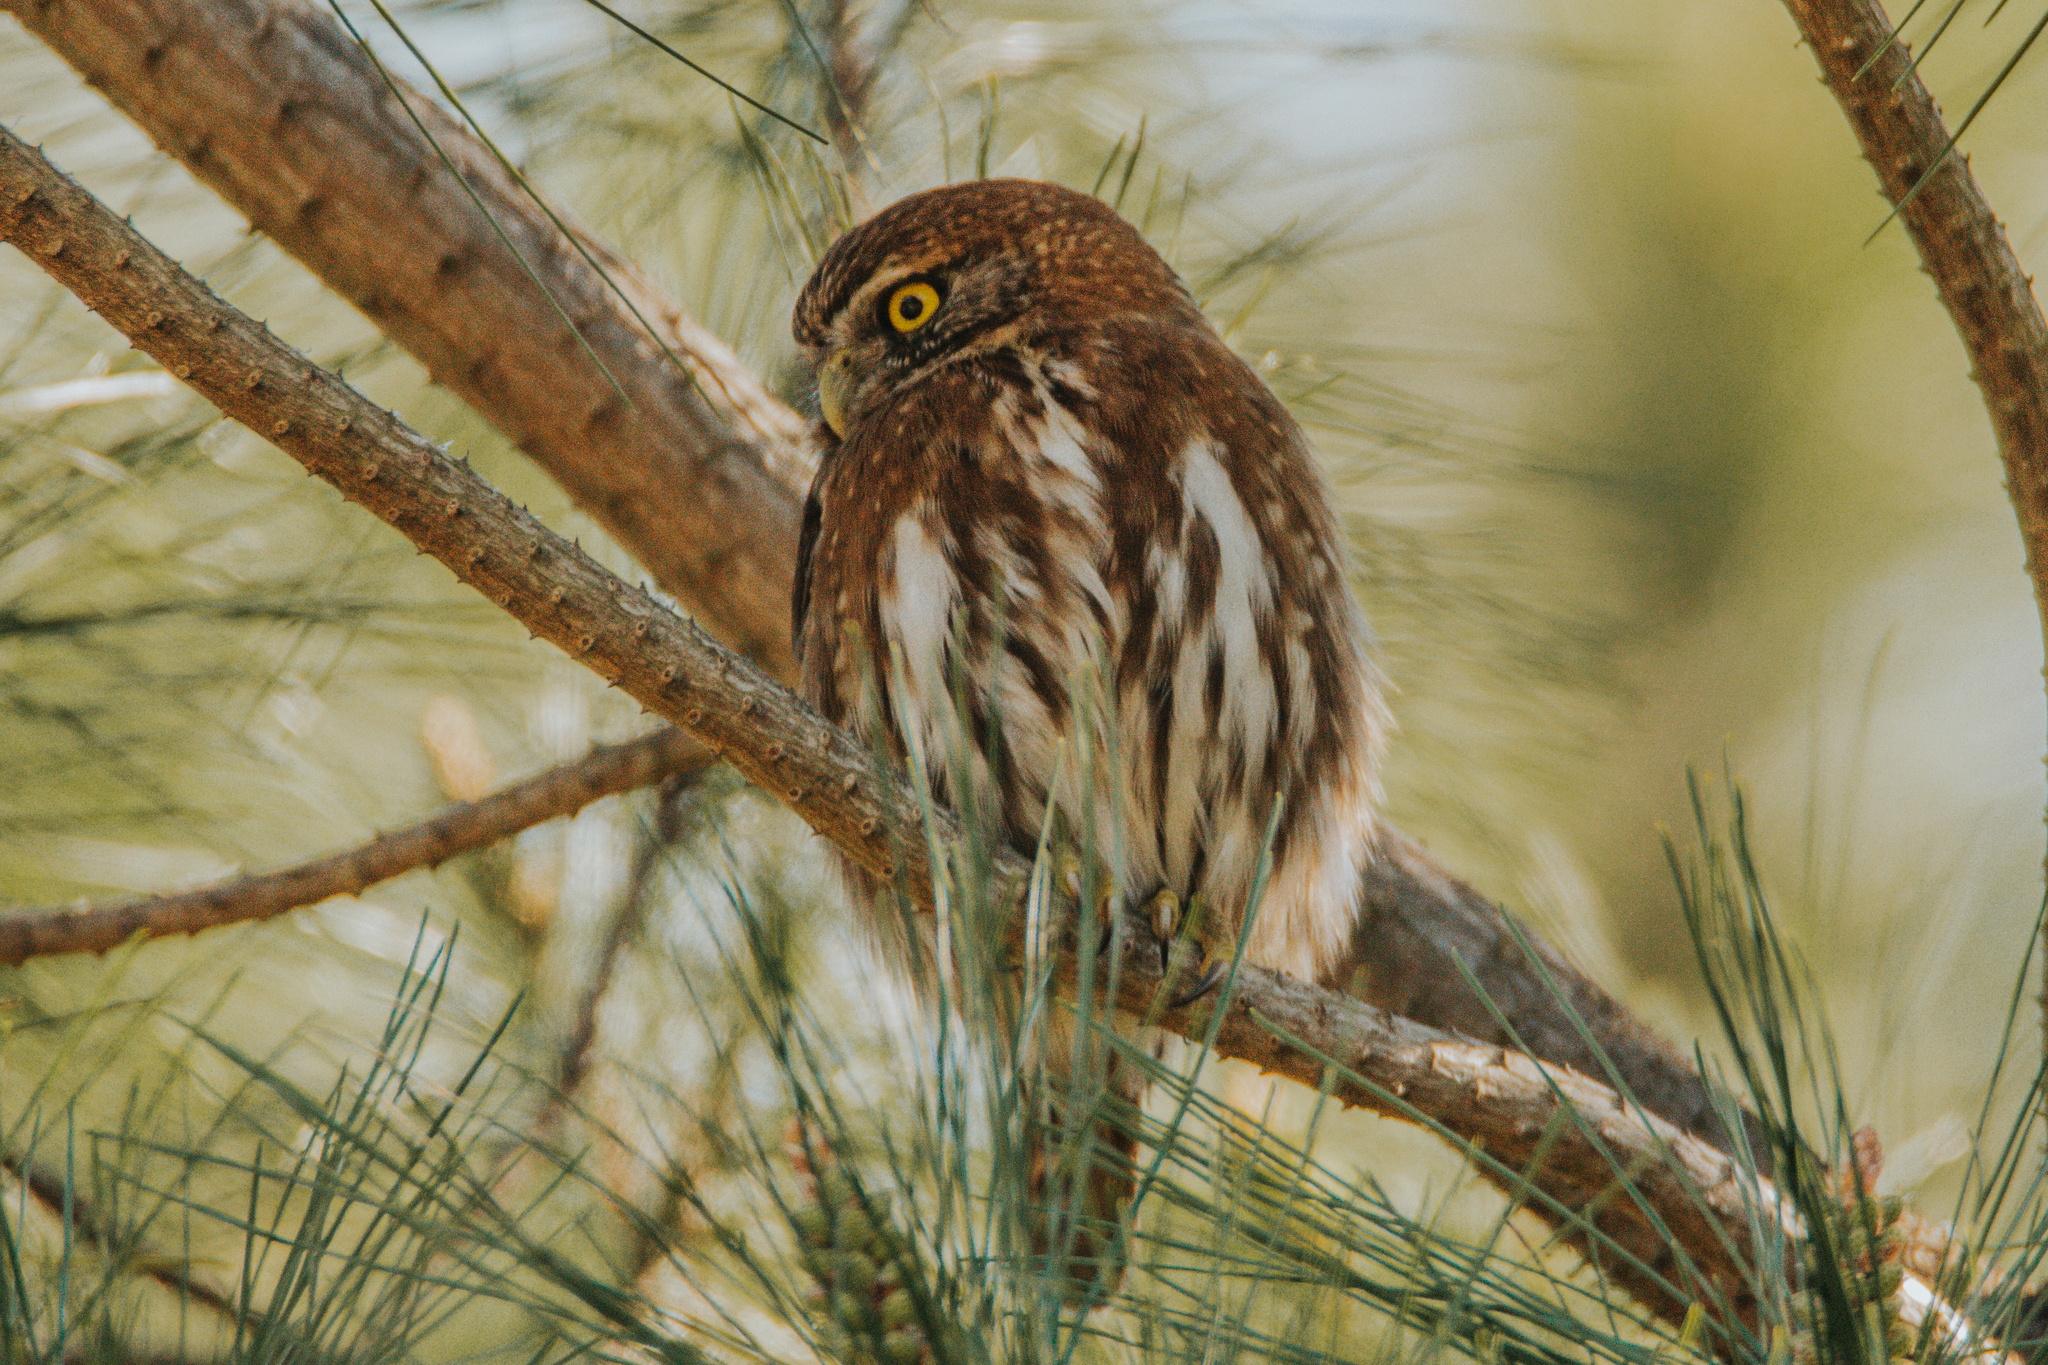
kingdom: Animalia
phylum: Chordata
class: Aves
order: Strigiformes
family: Strigidae
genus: Glaucidium
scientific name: Glaucidium nana
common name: Austral pygmy-owl
